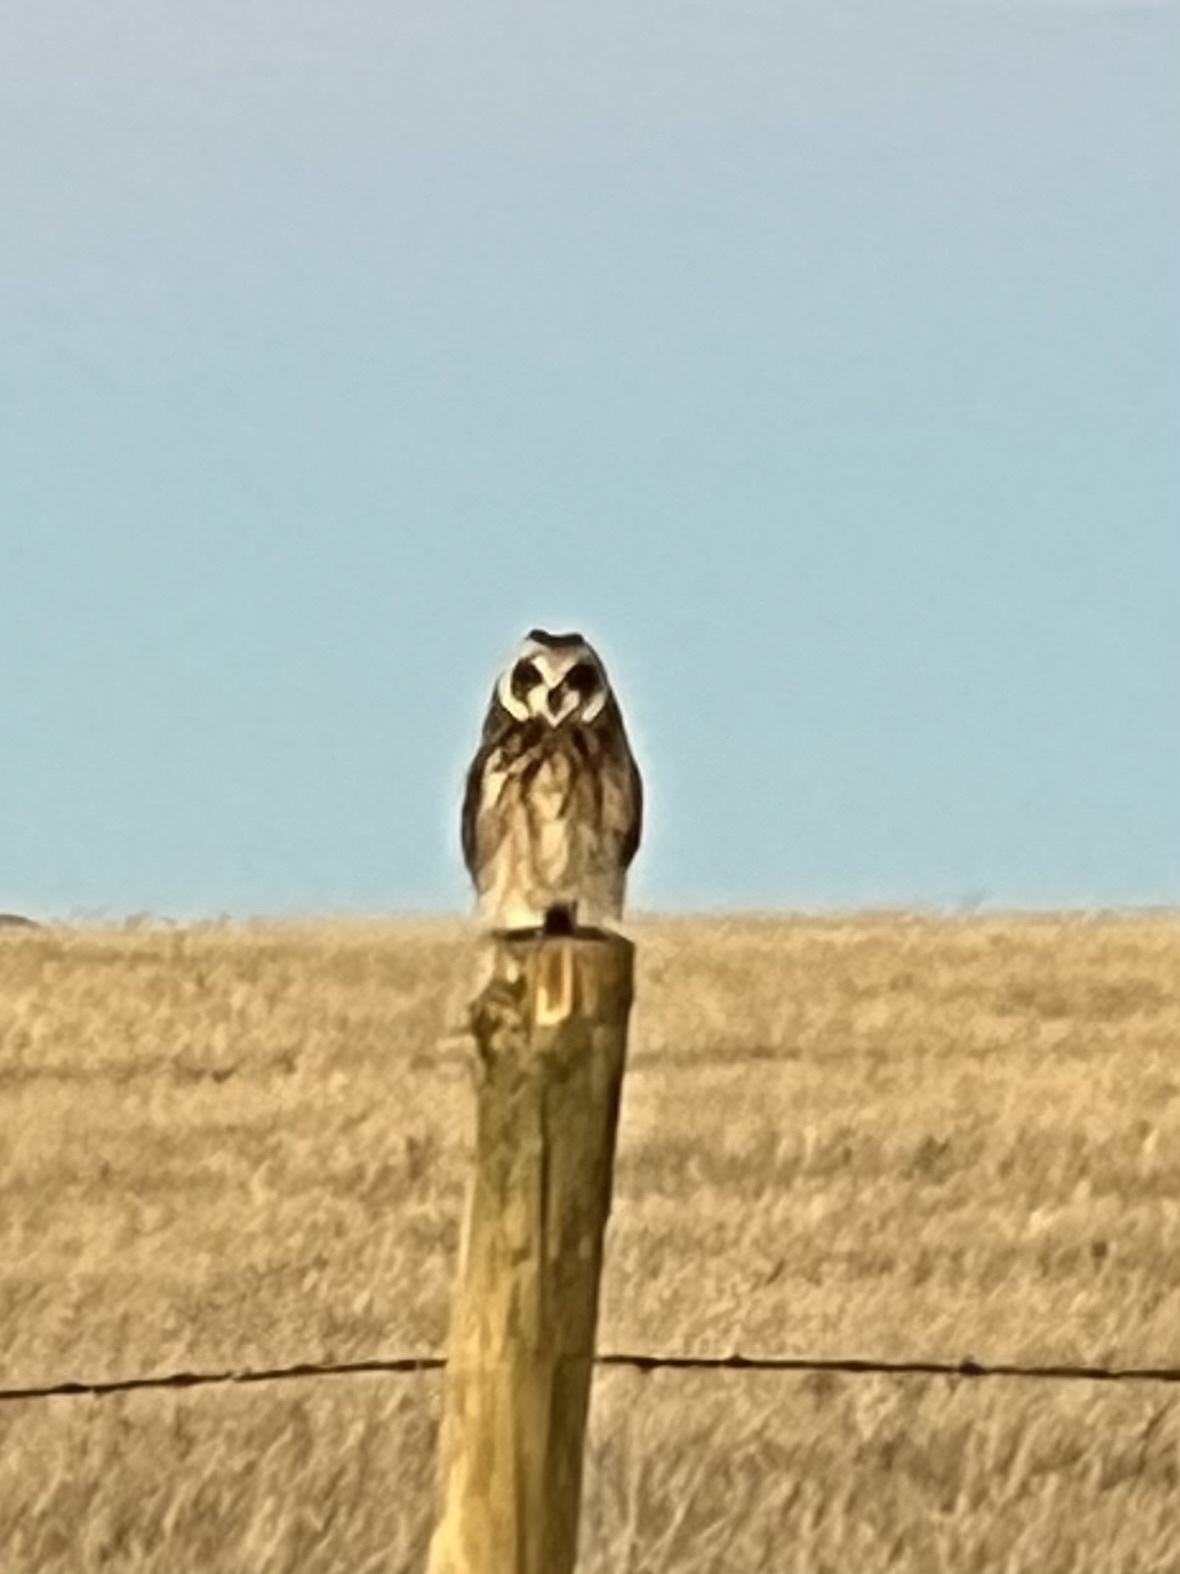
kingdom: Animalia
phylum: Chordata
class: Aves
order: Strigiformes
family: Strigidae
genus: Asio
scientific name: Asio flammeus
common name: Short-eared owl
